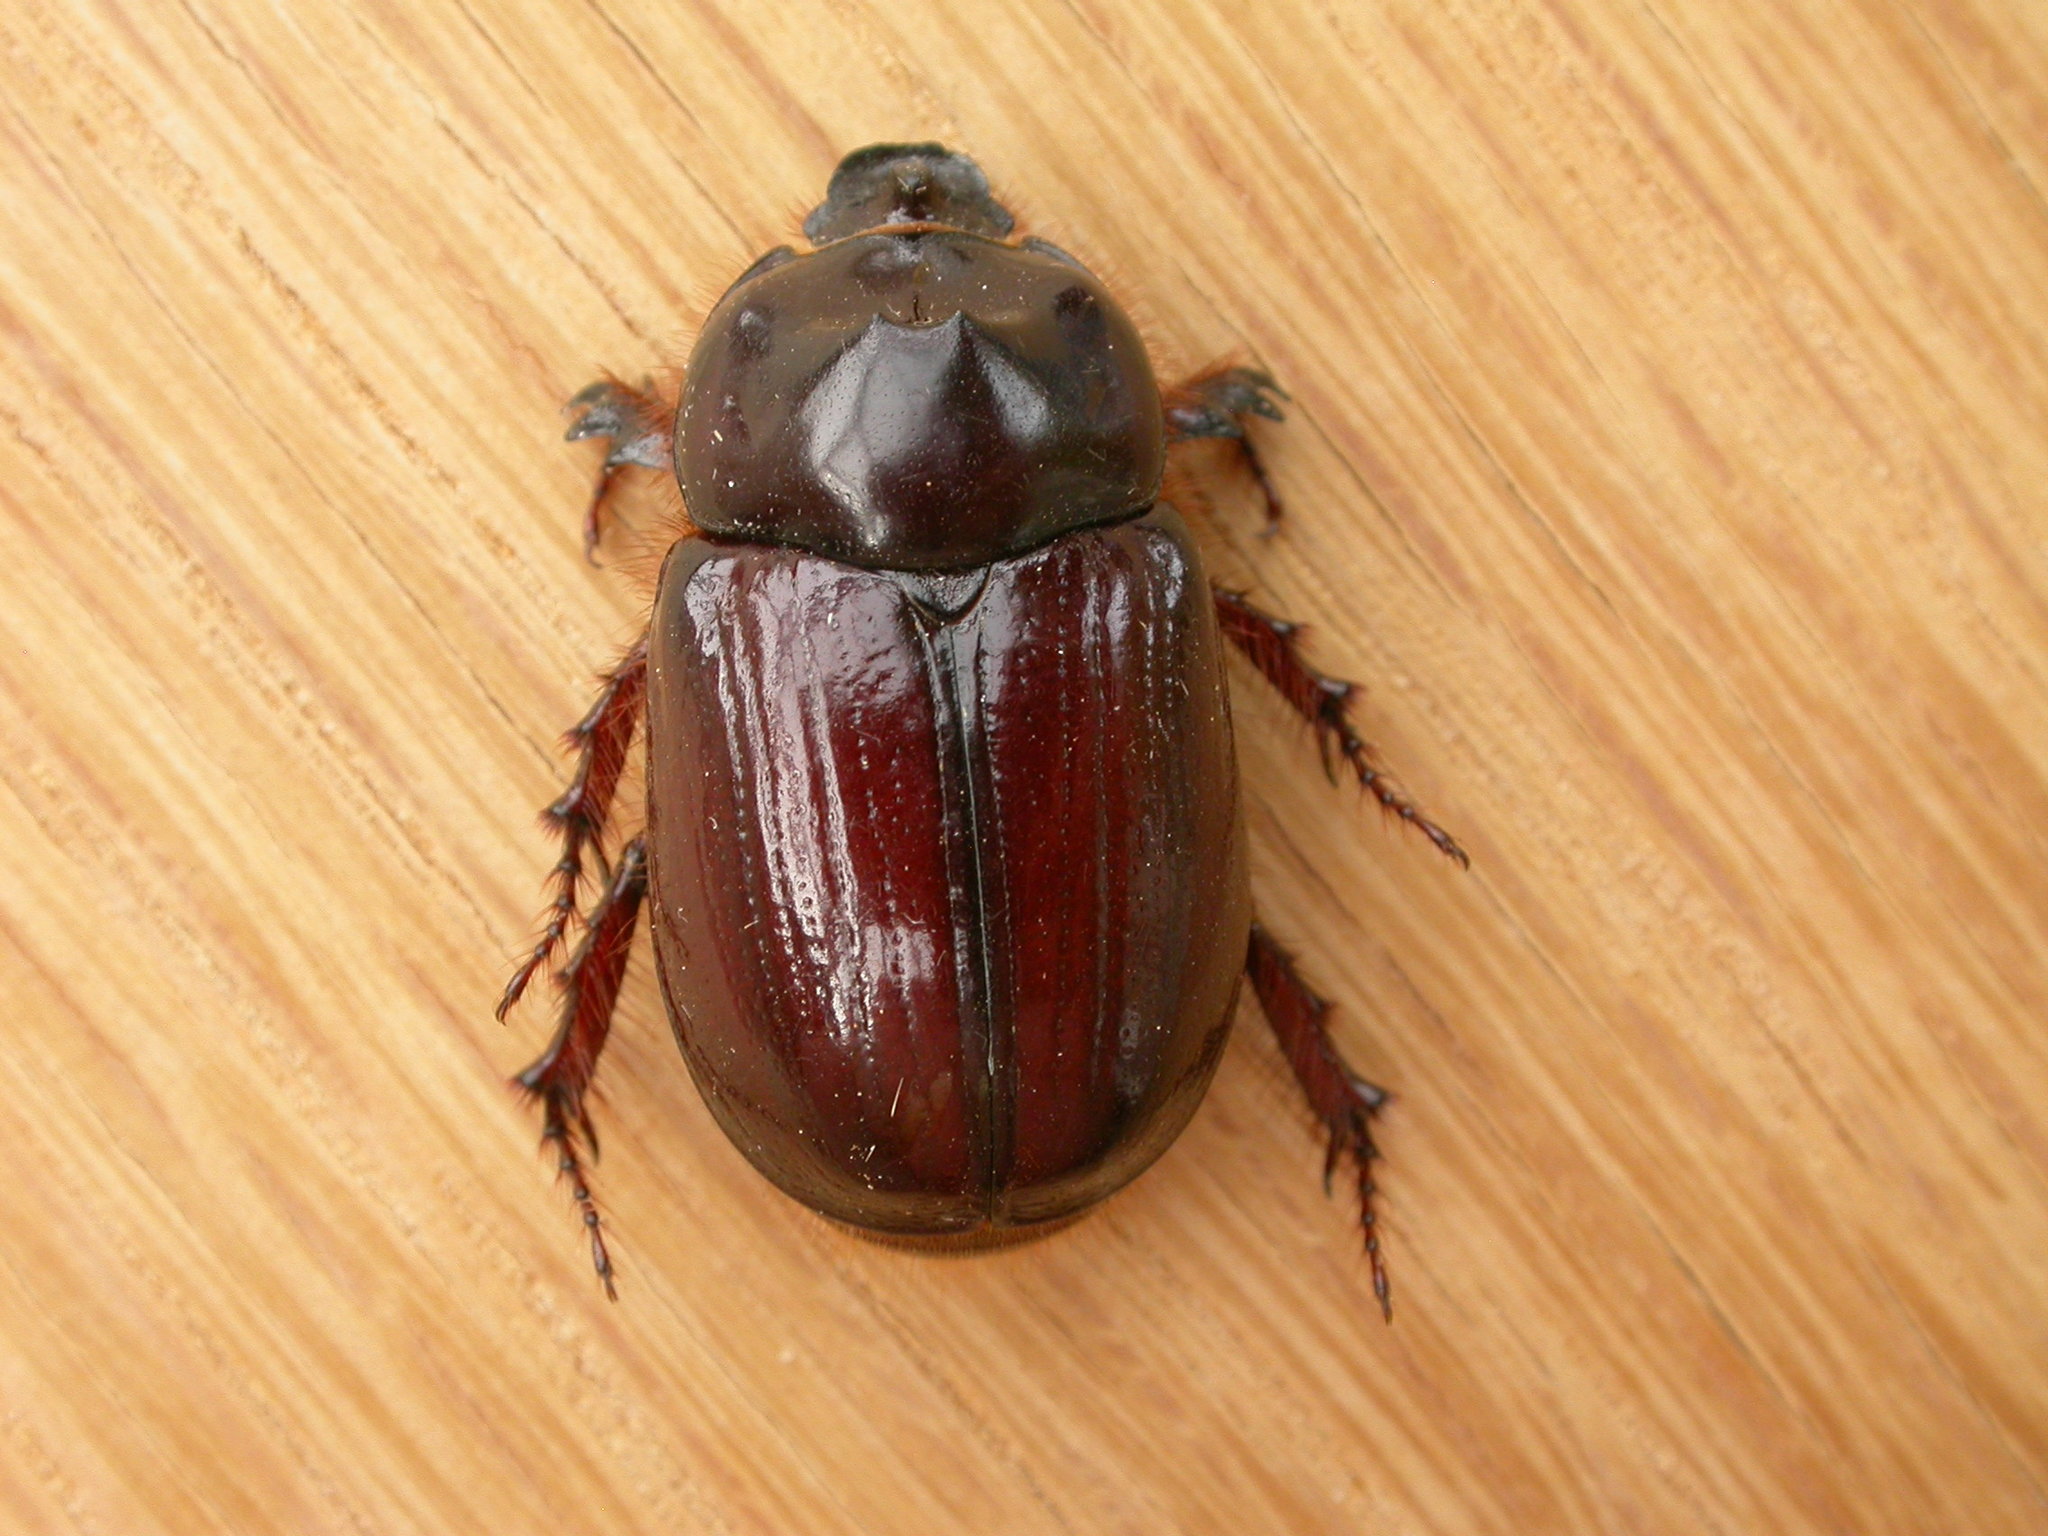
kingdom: Animalia
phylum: Arthropoda
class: Insecta
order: Coleoptera
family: Scarabaeidae
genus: Dasygnathus
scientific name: Dasygnathus trituberculatus
